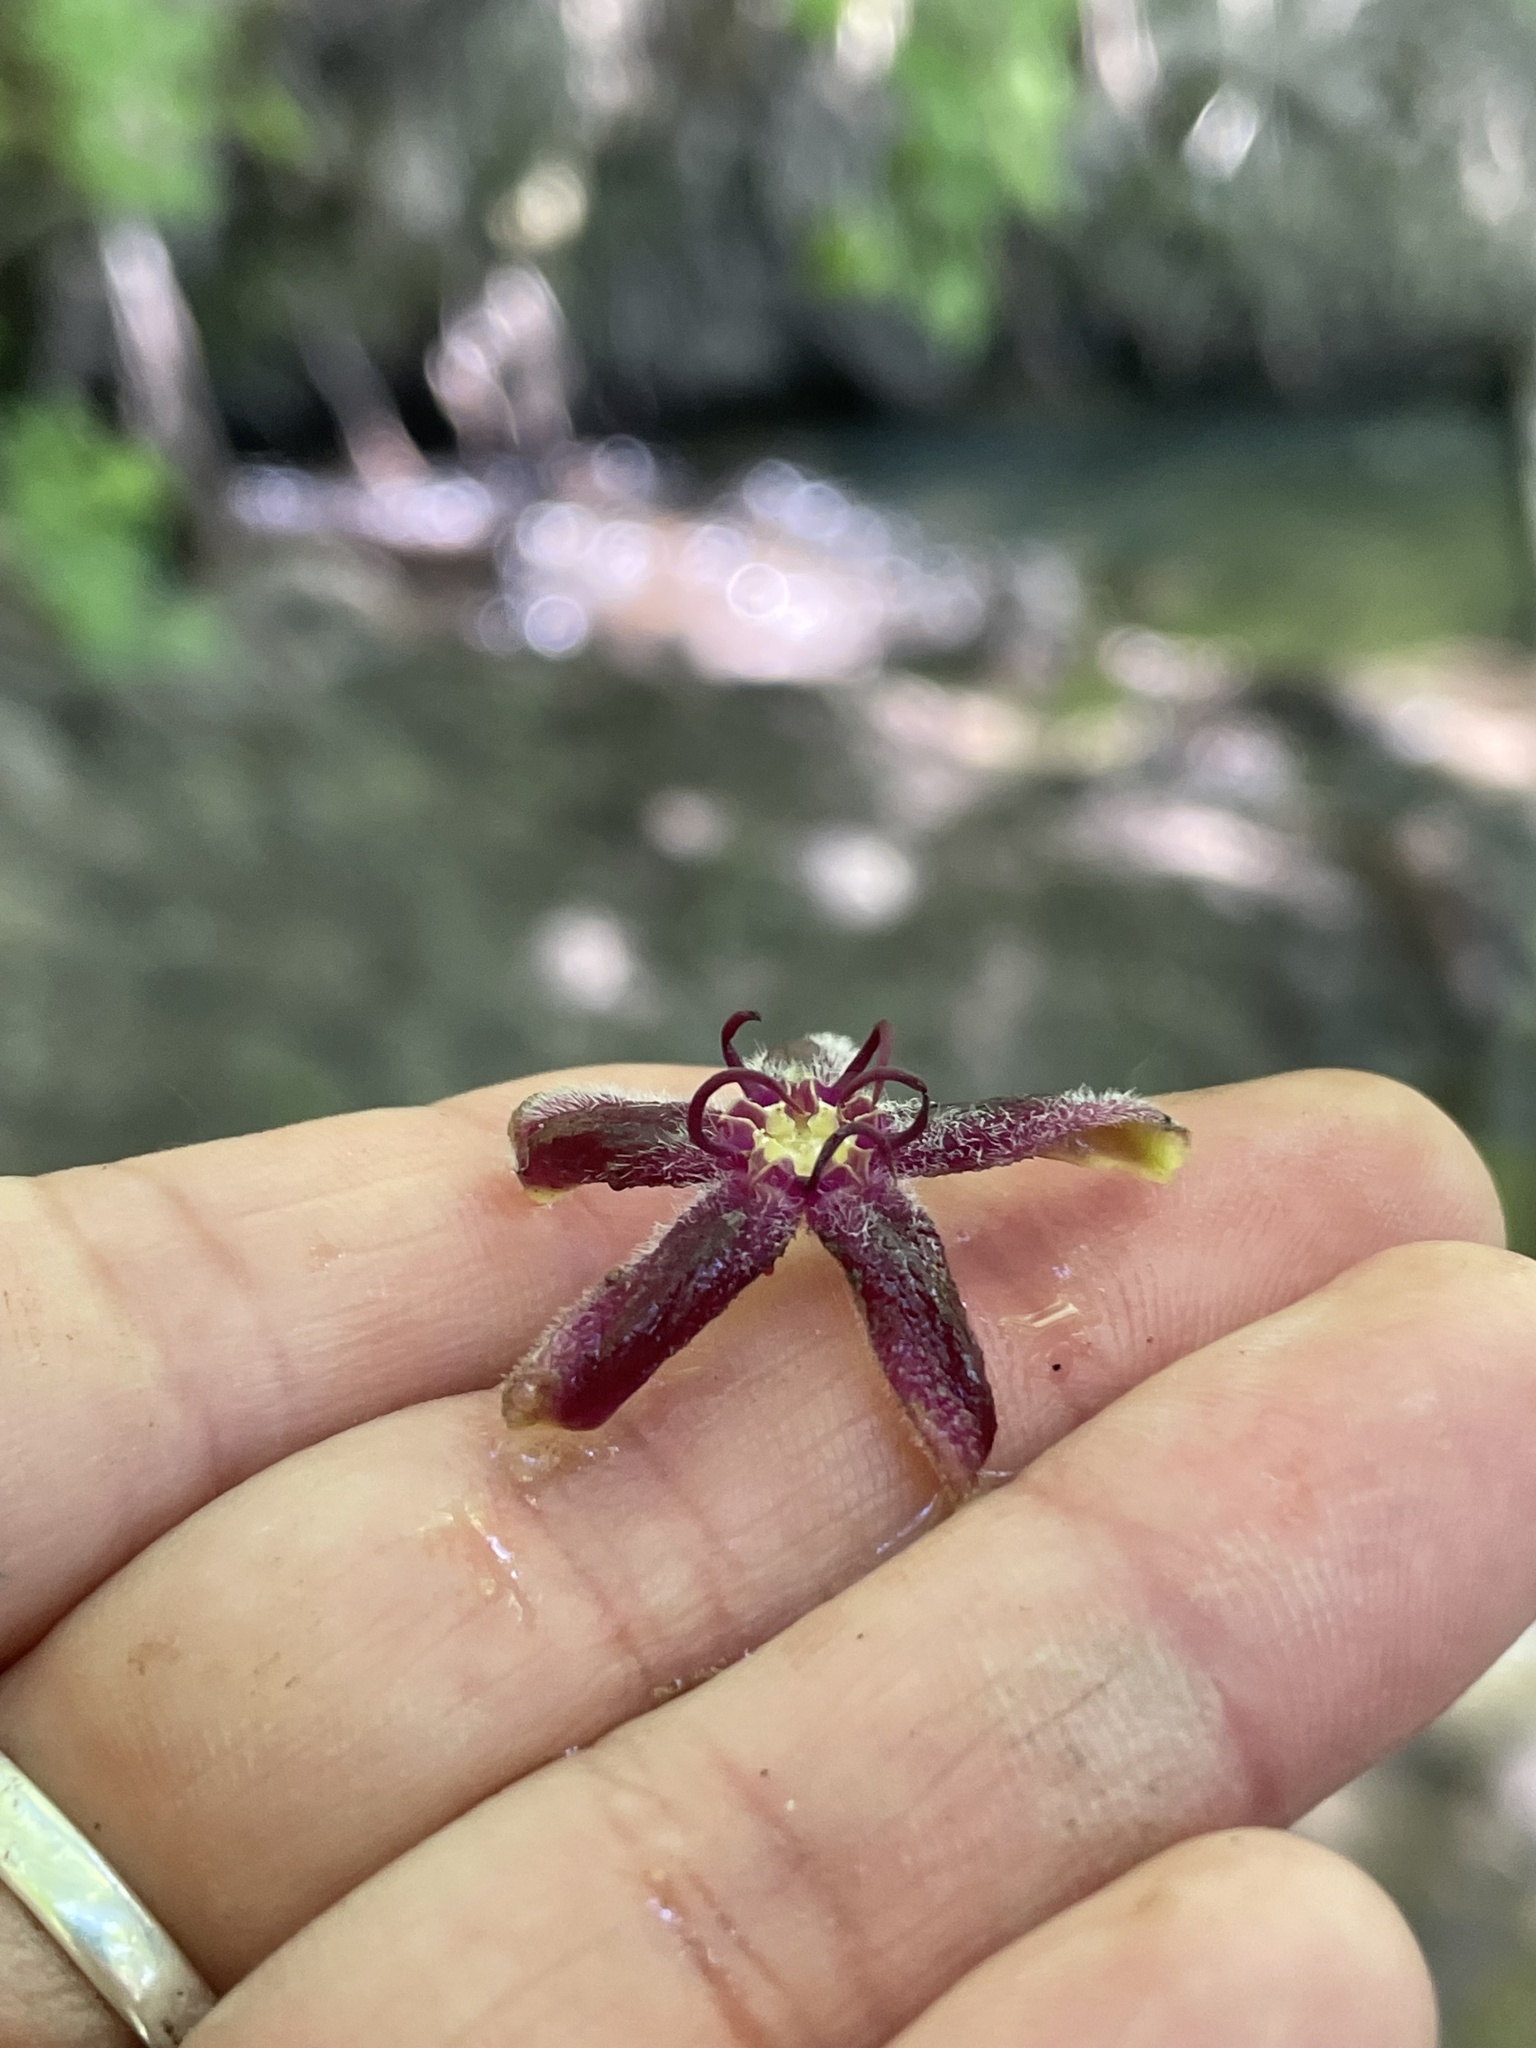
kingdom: Plantae
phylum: Tracheophyta
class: Magnoliopsida
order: Gentianales
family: Apocynaceae
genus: Periploca
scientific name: Periploca graeca
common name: Silkvine
